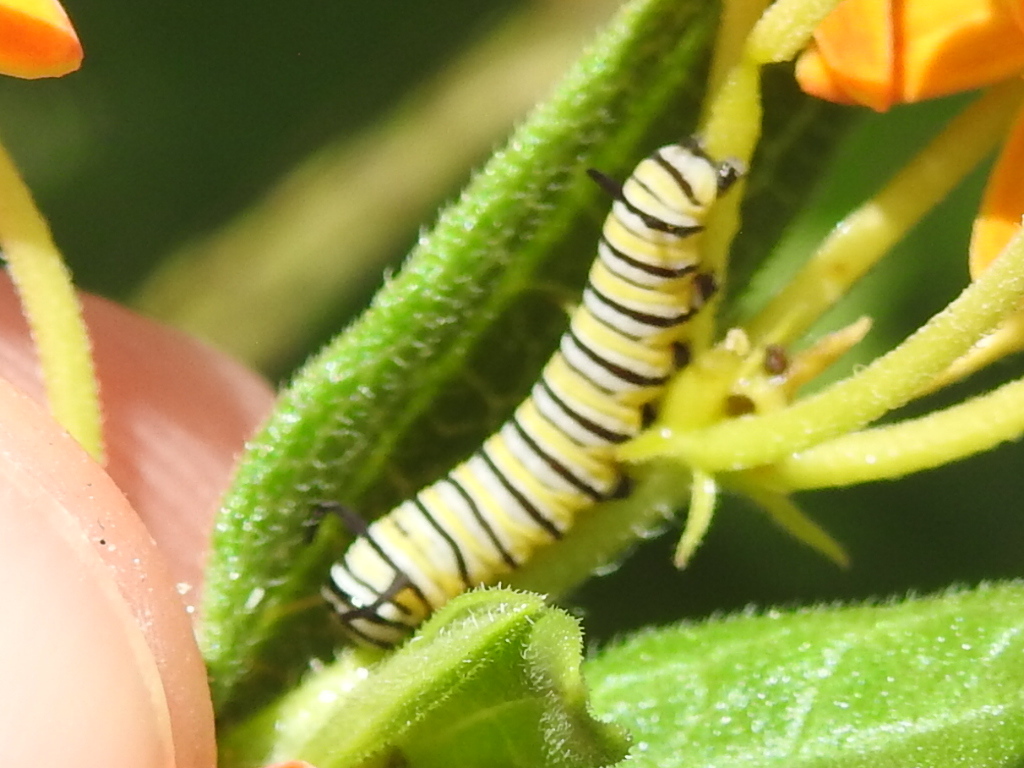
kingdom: Animalia
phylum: Arthropoda
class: Insecta
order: Lepidoptera
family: Nymphalidae
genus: Danaus
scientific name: Danaus plexippus
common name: Monarch
